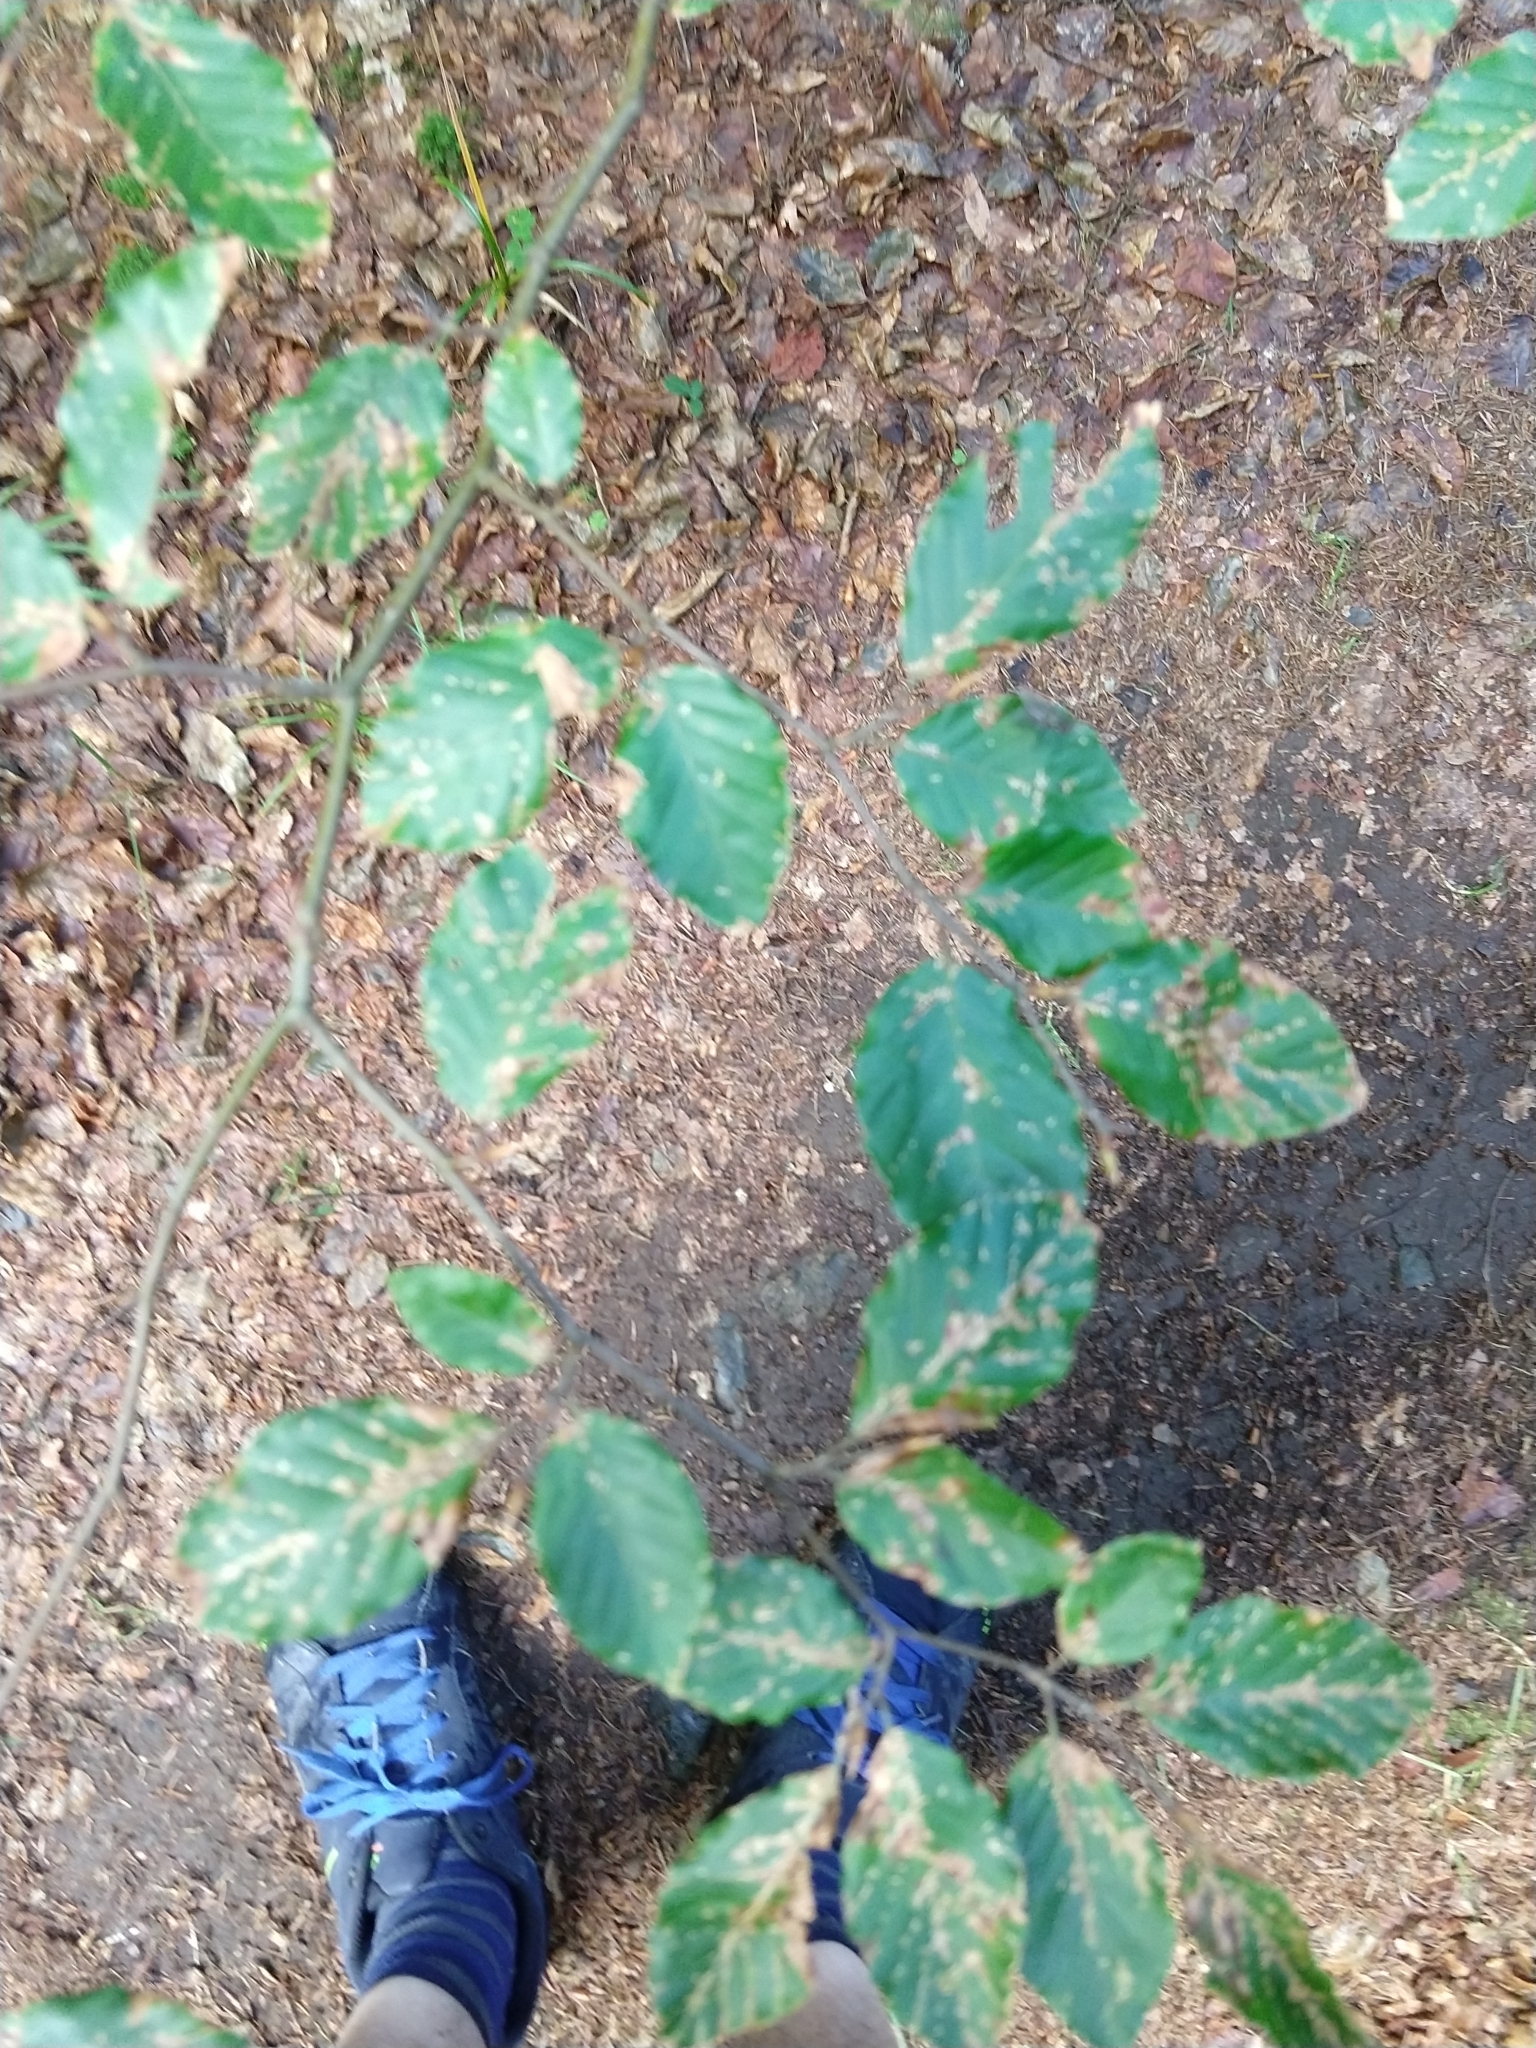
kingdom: Plantae
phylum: Tracheophyta
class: Magnoliopsida
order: Fagales
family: Fagaceae
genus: Fagus
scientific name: Fagus sylvatica
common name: Beech
